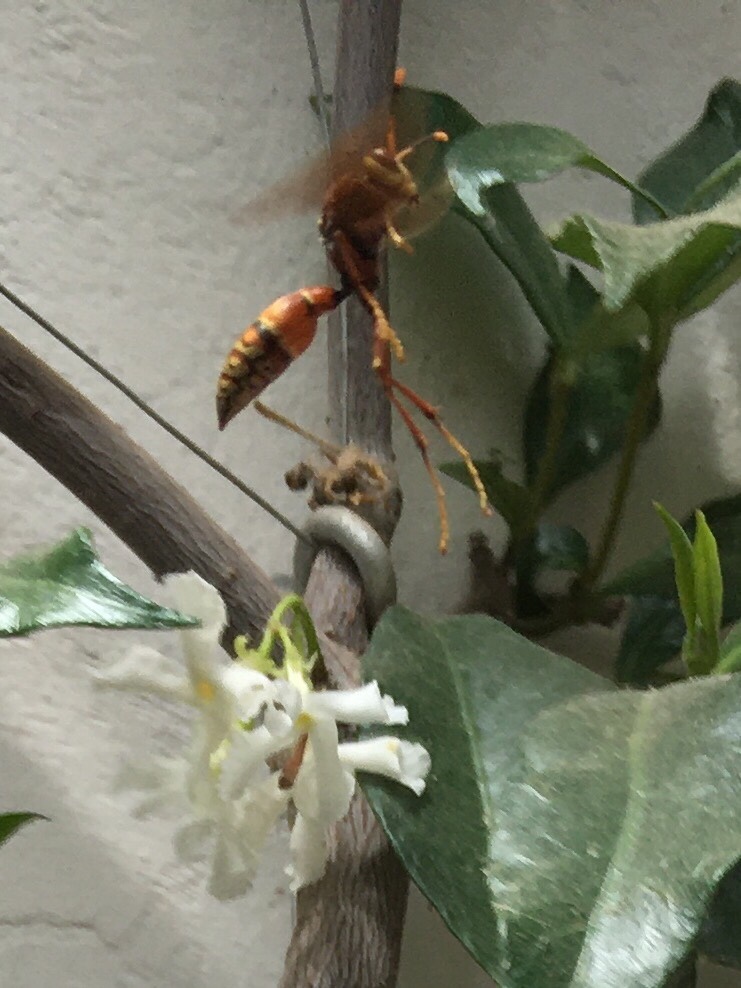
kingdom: Animalia
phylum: Arthropoda
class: Insecta
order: Hymenoptera
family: Eumenidae
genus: Polistes
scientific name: Polistes cavapyta
